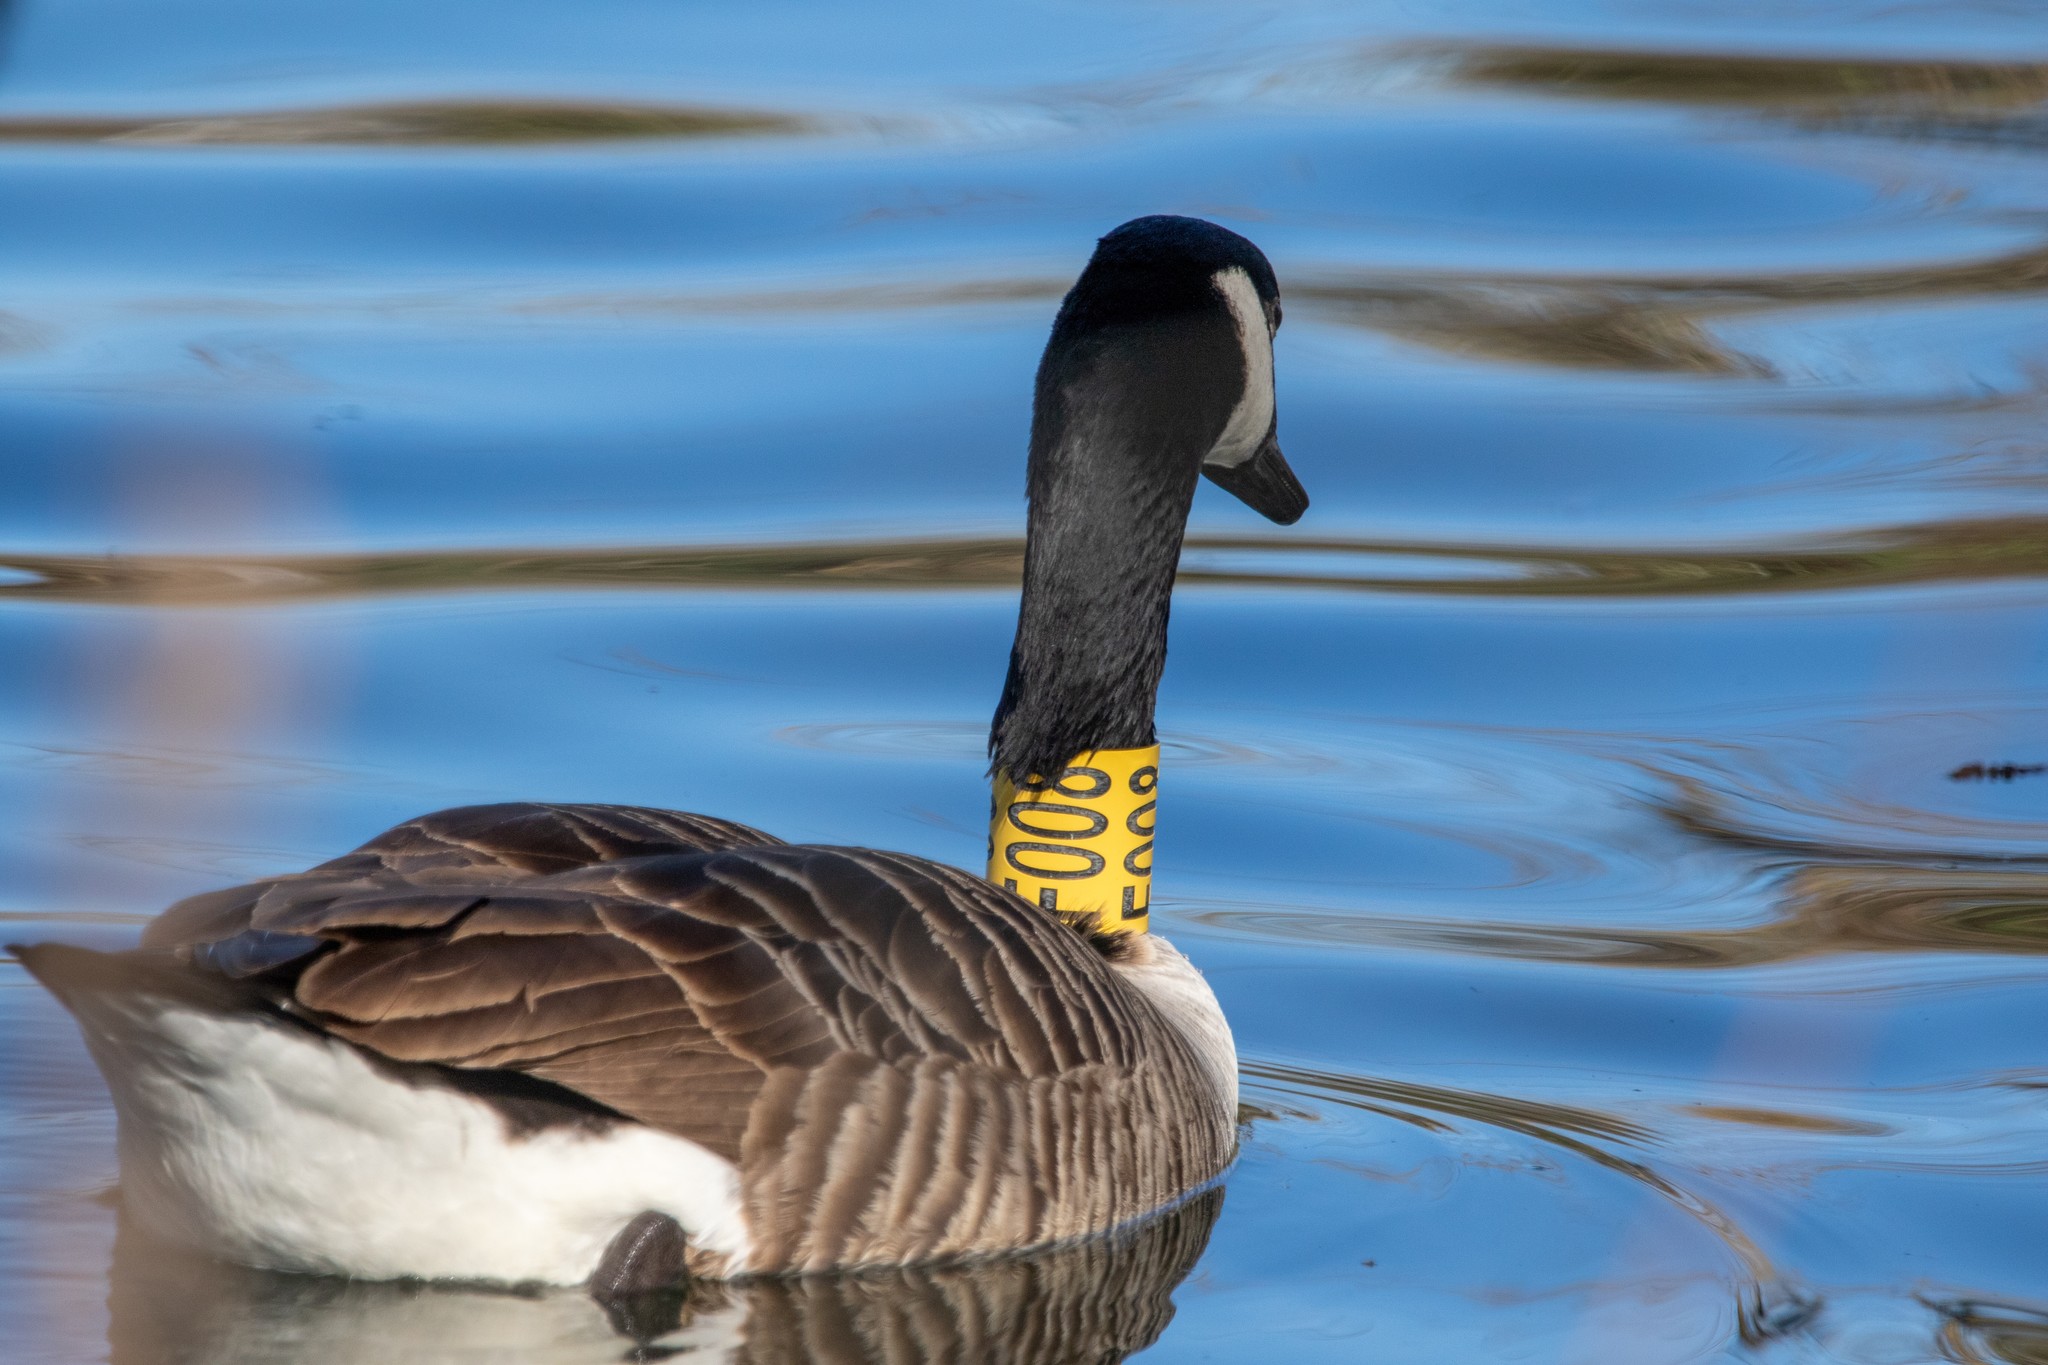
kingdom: Animalia
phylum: Chordata
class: Aves
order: Anseriformes
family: Anatidae
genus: Branta
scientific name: Branta canadensis
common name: Canada goose
